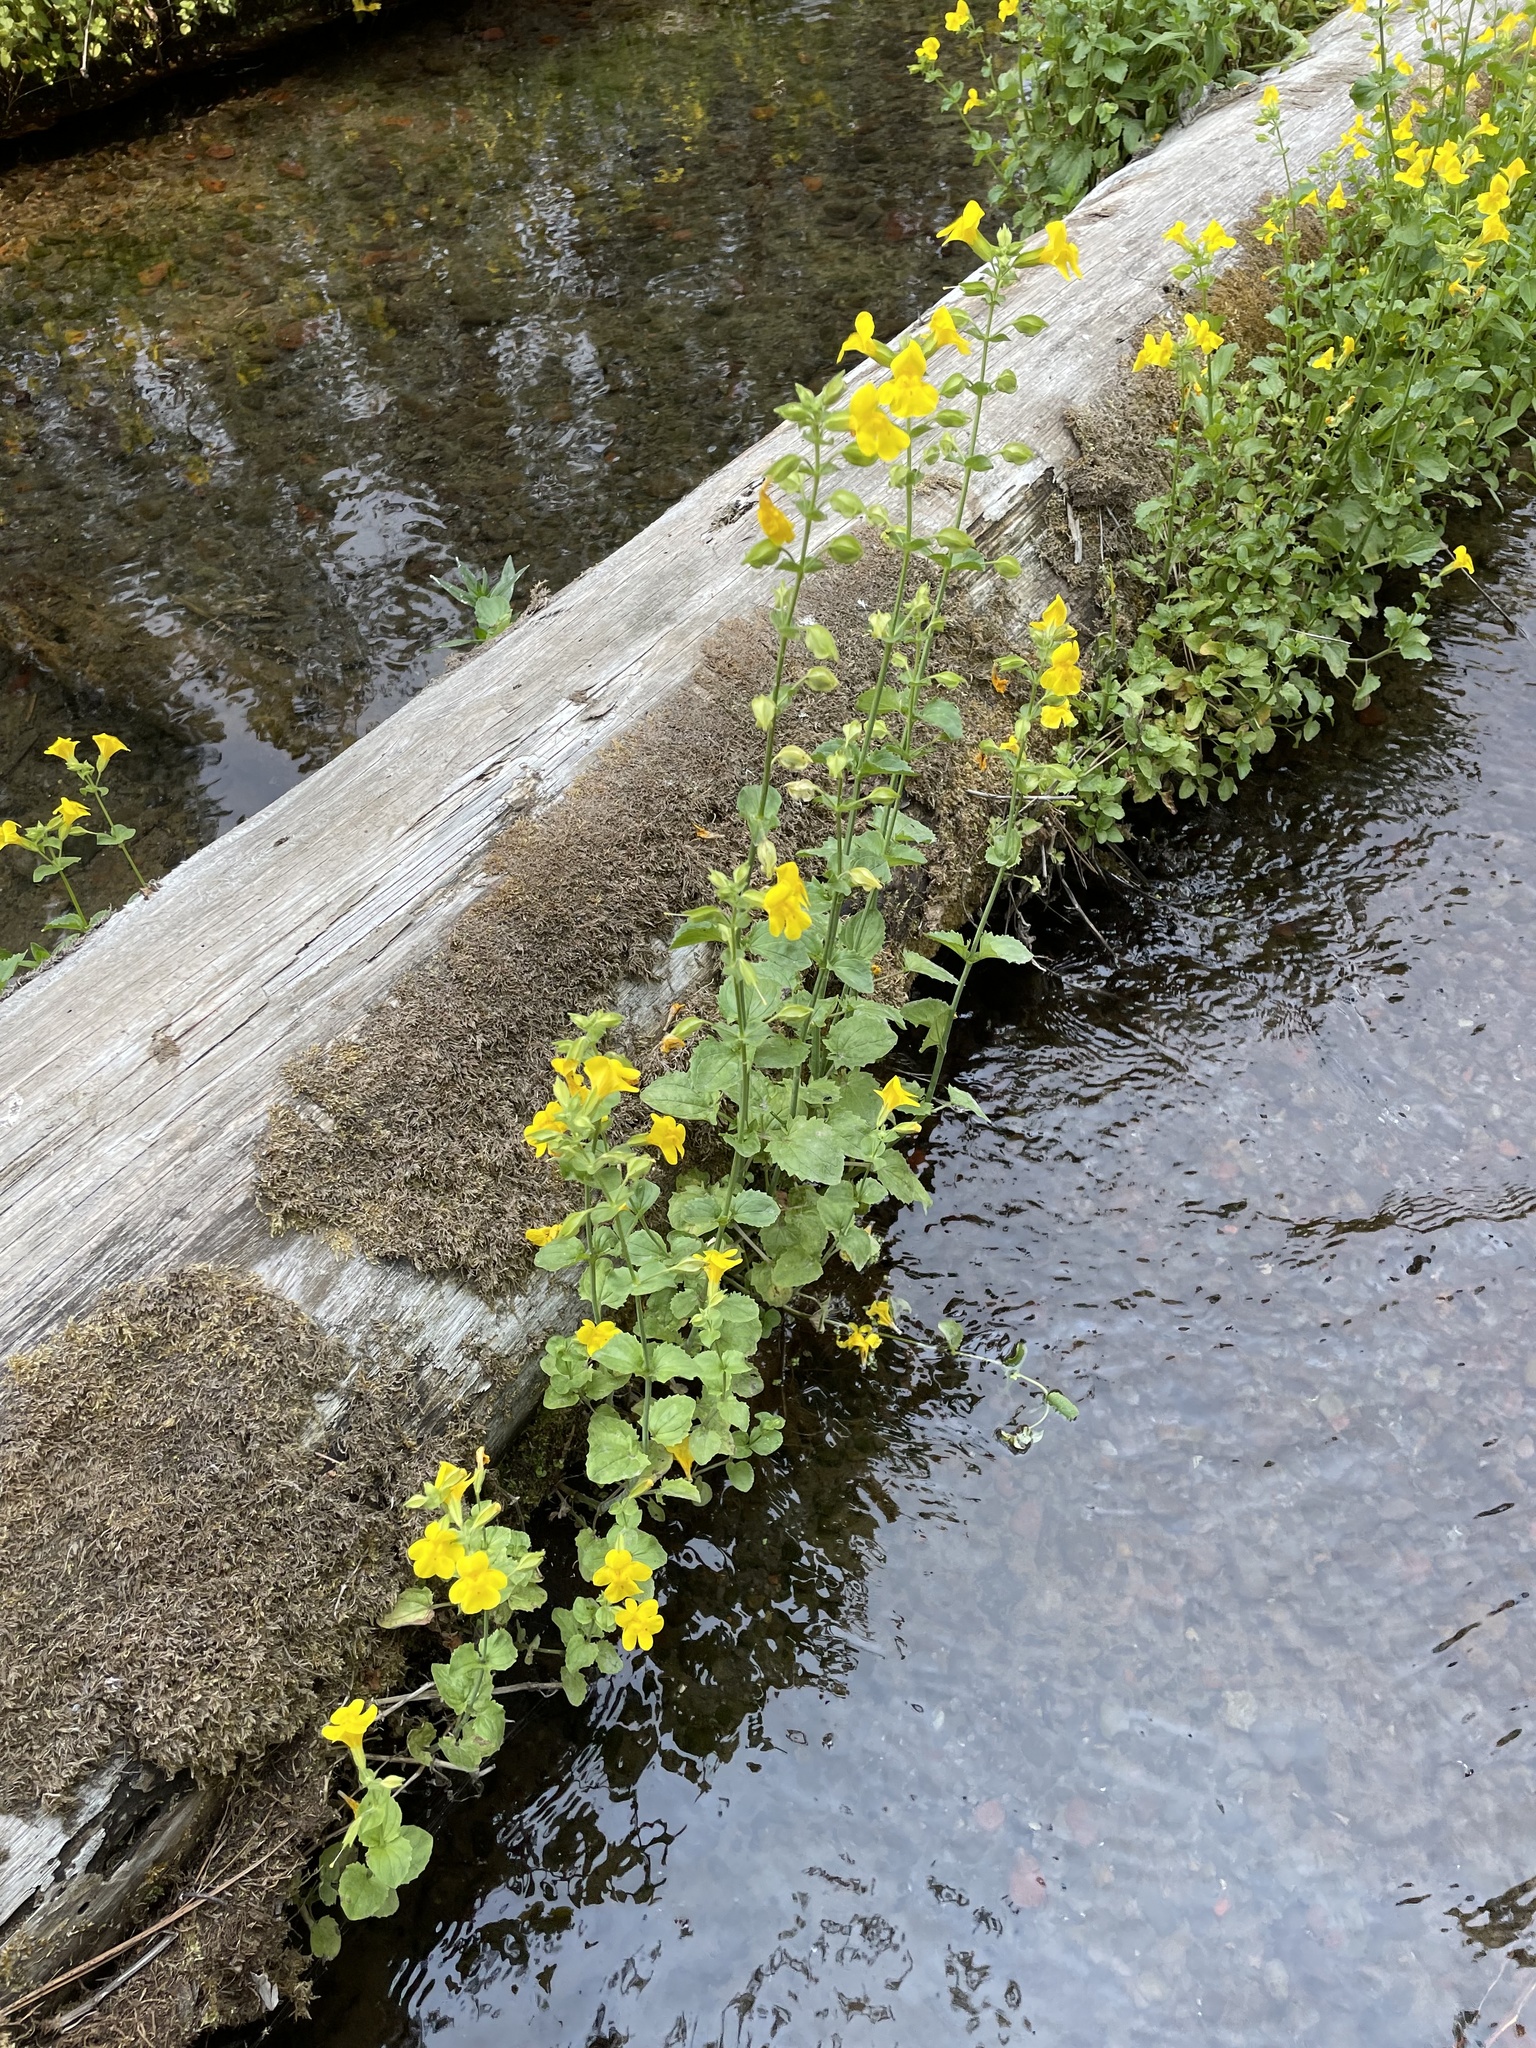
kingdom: Plantae
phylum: Tracheophyta
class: Magnoliopsida
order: Lamiales
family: Phrymaceae
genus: Erythranthe
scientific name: Erythranthe guttata
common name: Monkeyflower
